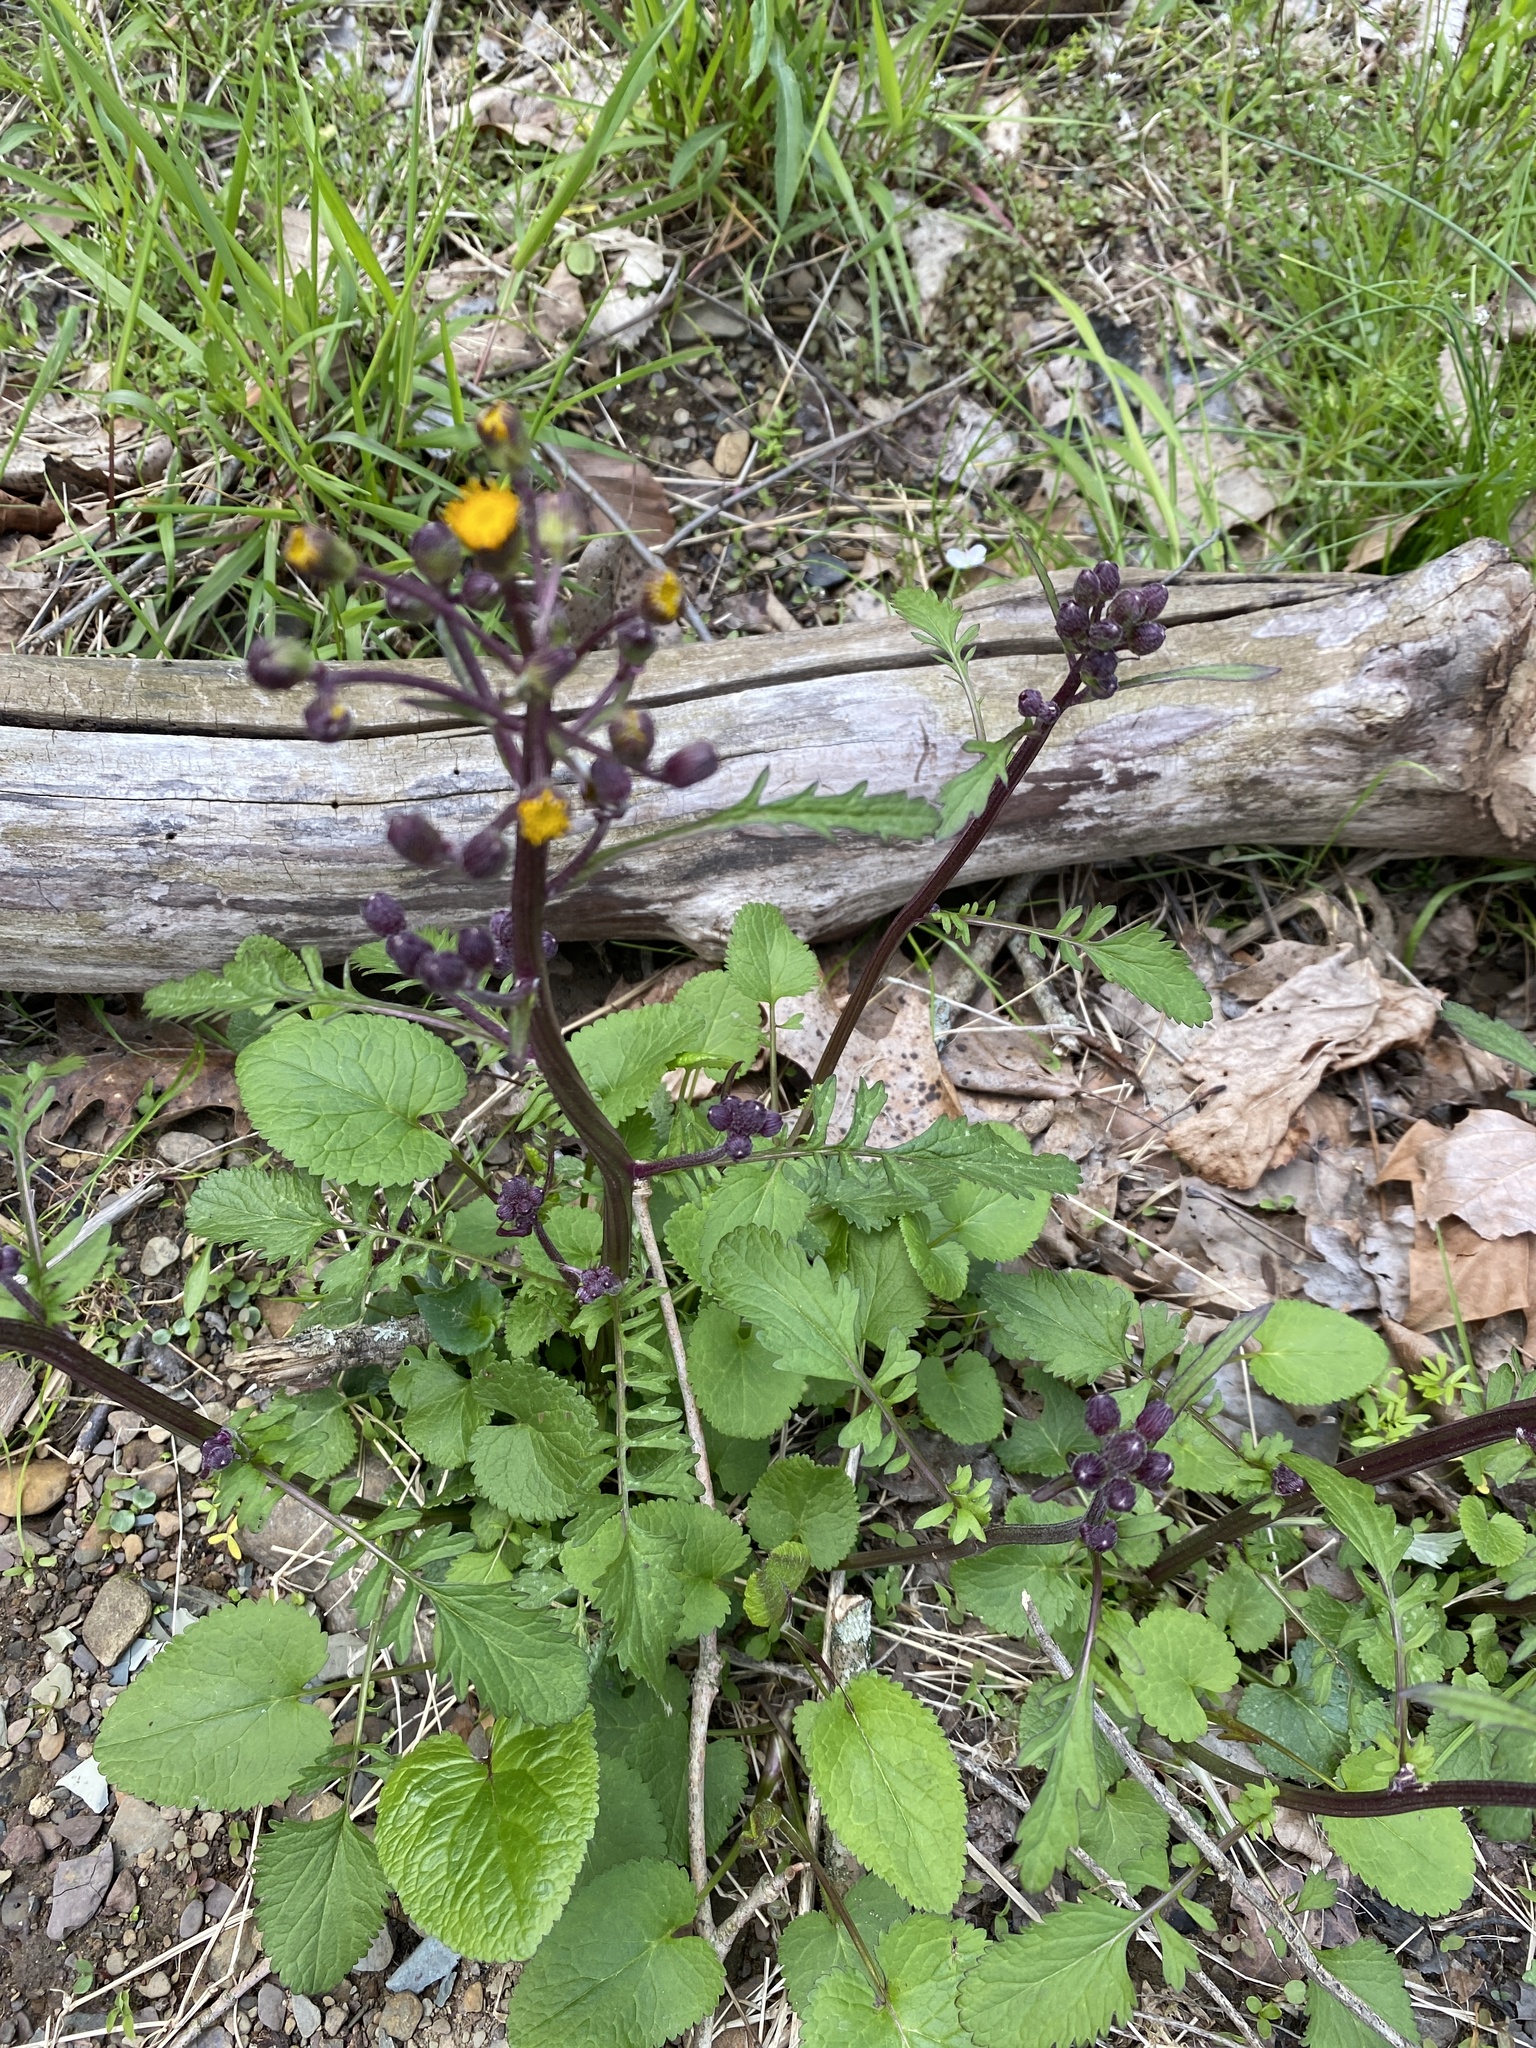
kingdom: Plantae
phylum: Tracheophyta
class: Magnoliopsida
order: Asterales
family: Asteraceae
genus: Packera
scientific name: Packera aurea
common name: Golden groundsel
